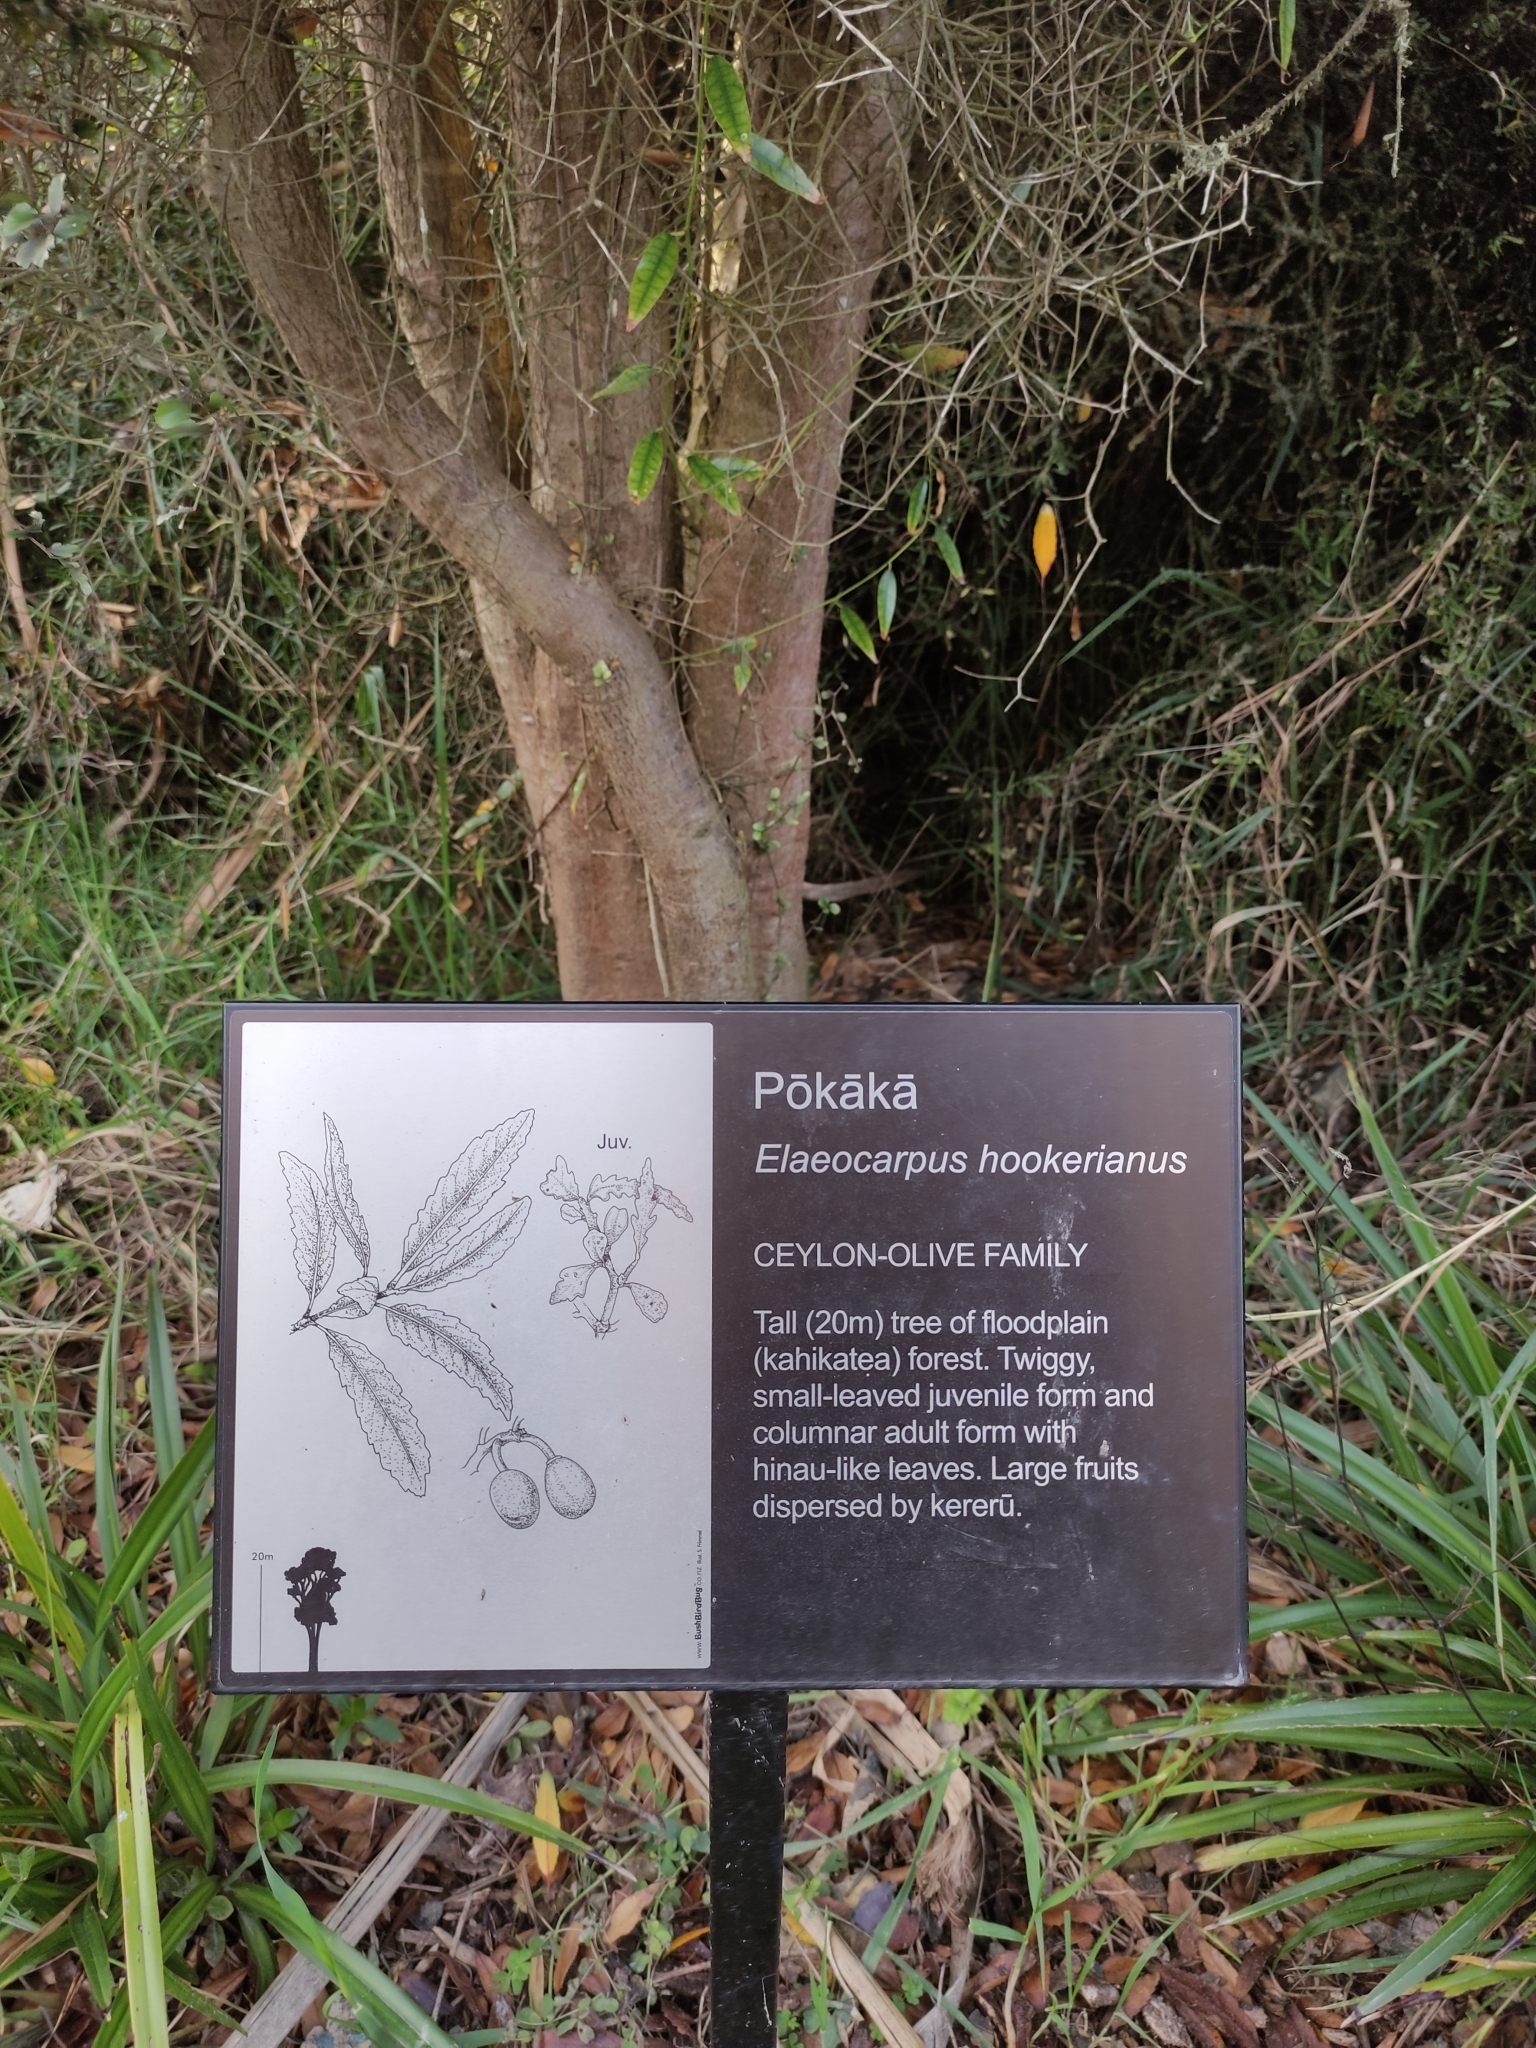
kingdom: Plantae
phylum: Tracheophyta
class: Magnoliopsida
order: Oxalidales
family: Elaeocarpaceae
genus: Elaeocarpus
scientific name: Elaeocarpus hookerianus
